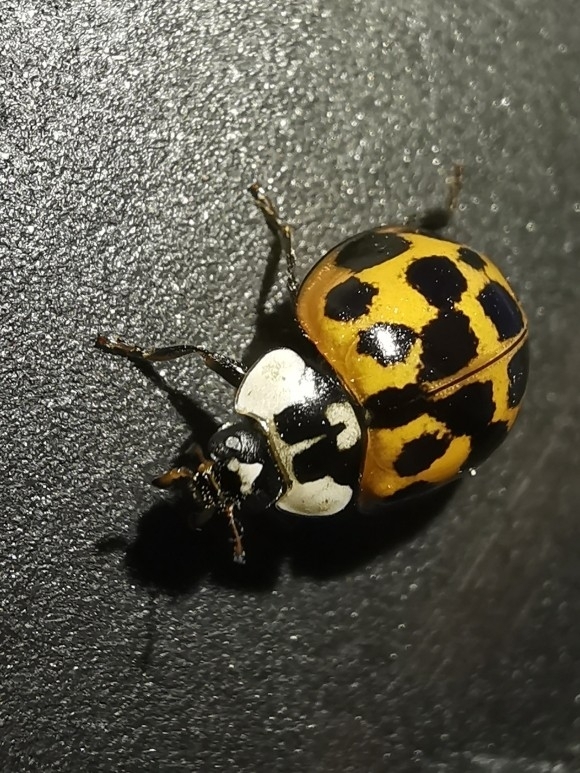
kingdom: Animalia
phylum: Arthropoda
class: Insecta
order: Coleoptera
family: Coccinellidae
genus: Harmonia
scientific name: Harmonia axyridis
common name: Harlequin ladybird
